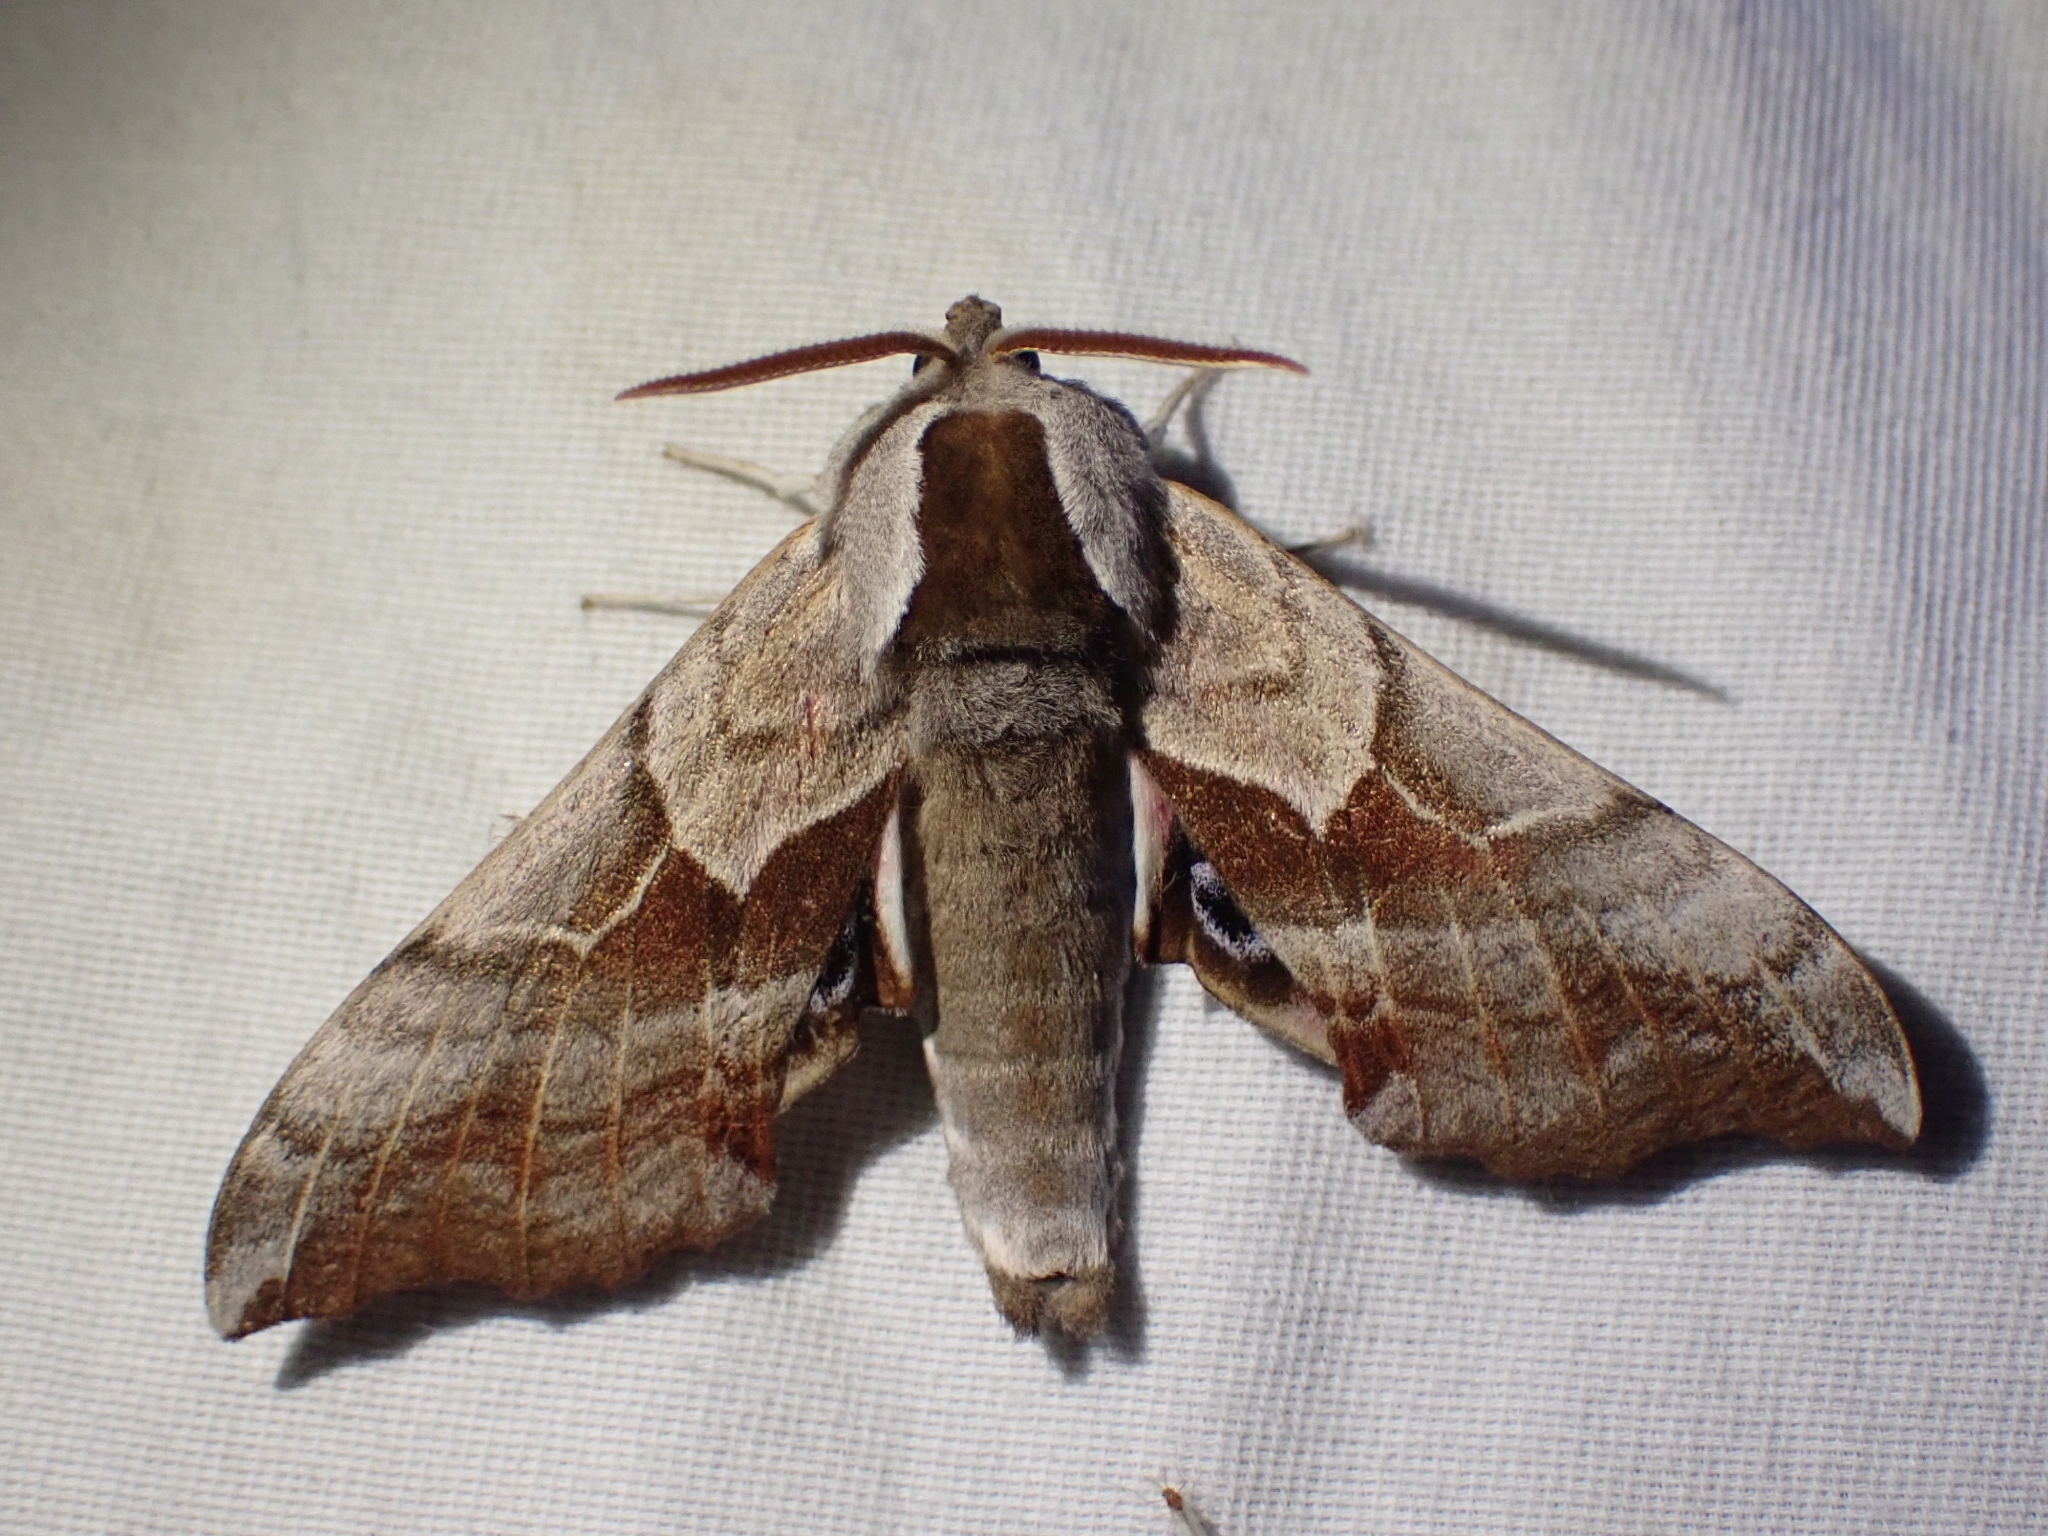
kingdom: Animalia
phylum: Arthropoda
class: Insecta
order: Lepidoptera
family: Sphingidae
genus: Smerinthus
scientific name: Smerinthus cerisyi
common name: Cerisy's sphinx moth
